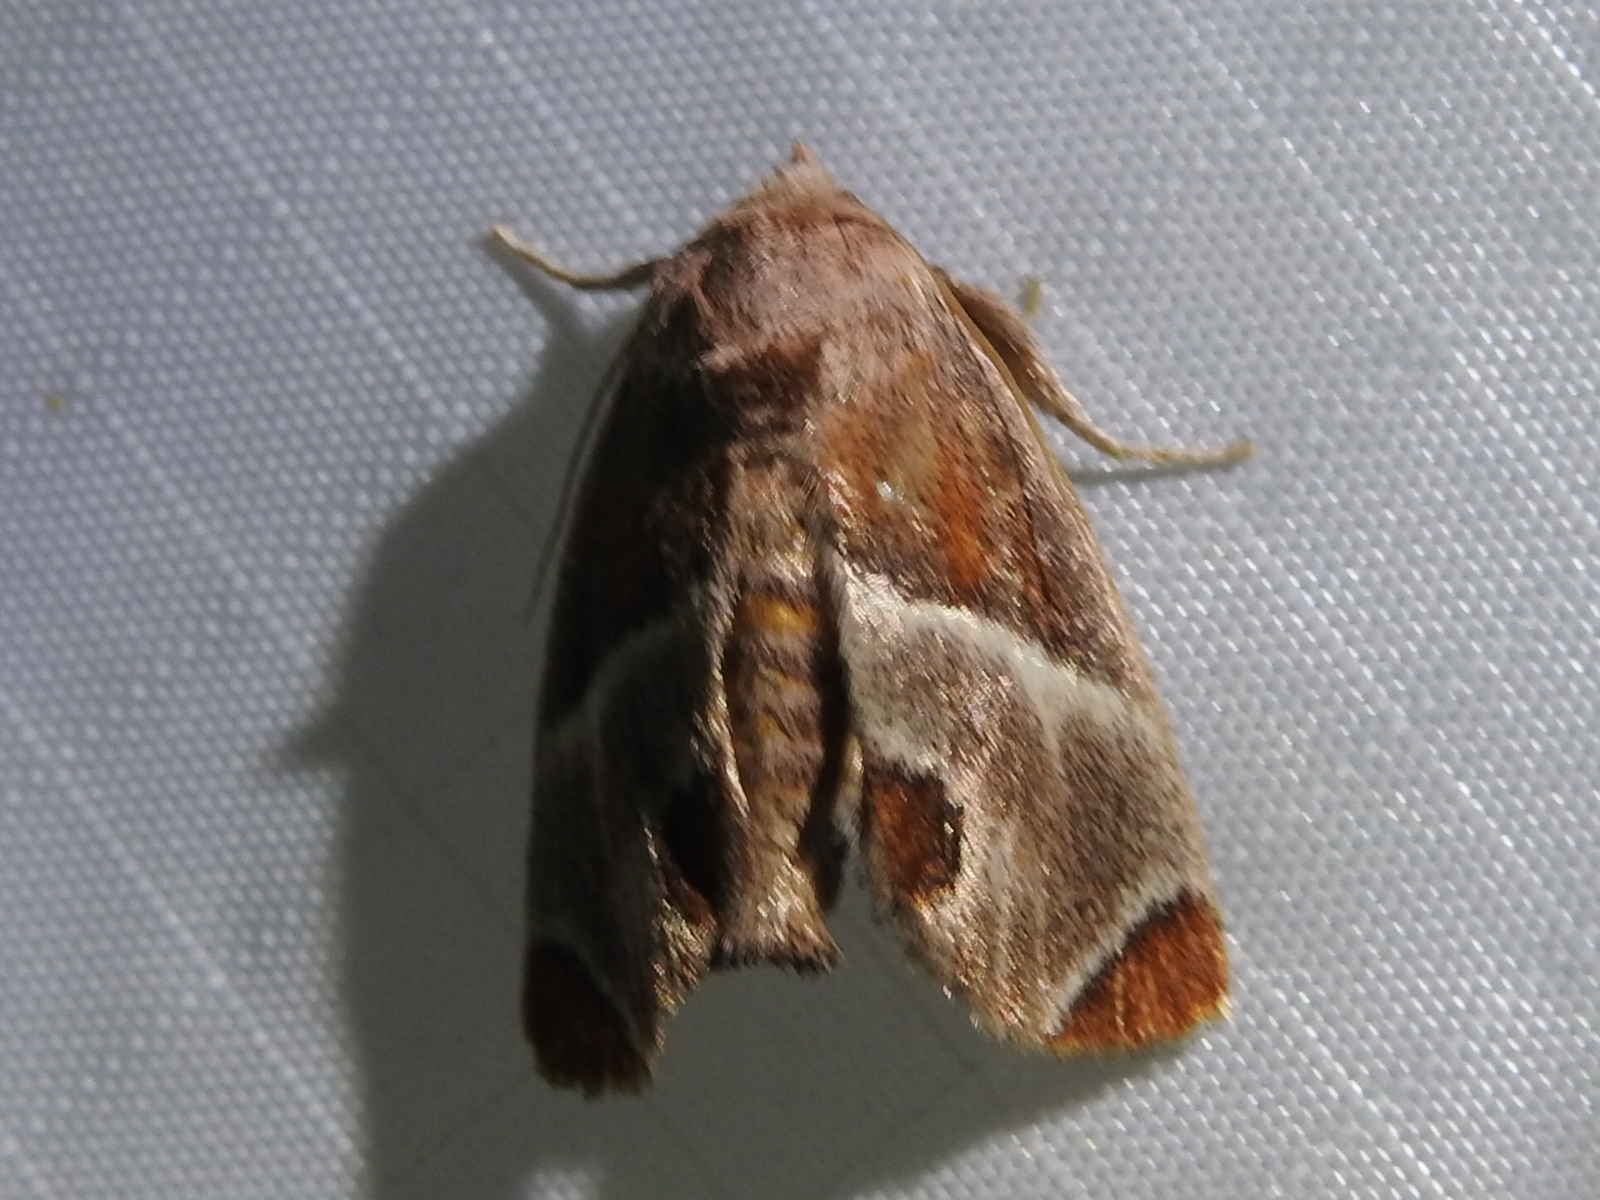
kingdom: Animalia
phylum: Arthropoda
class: Insecta
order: Lepidoptera
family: Limacodidae
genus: Apoda
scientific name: Apoda biguttata
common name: Shagreened slug moth
